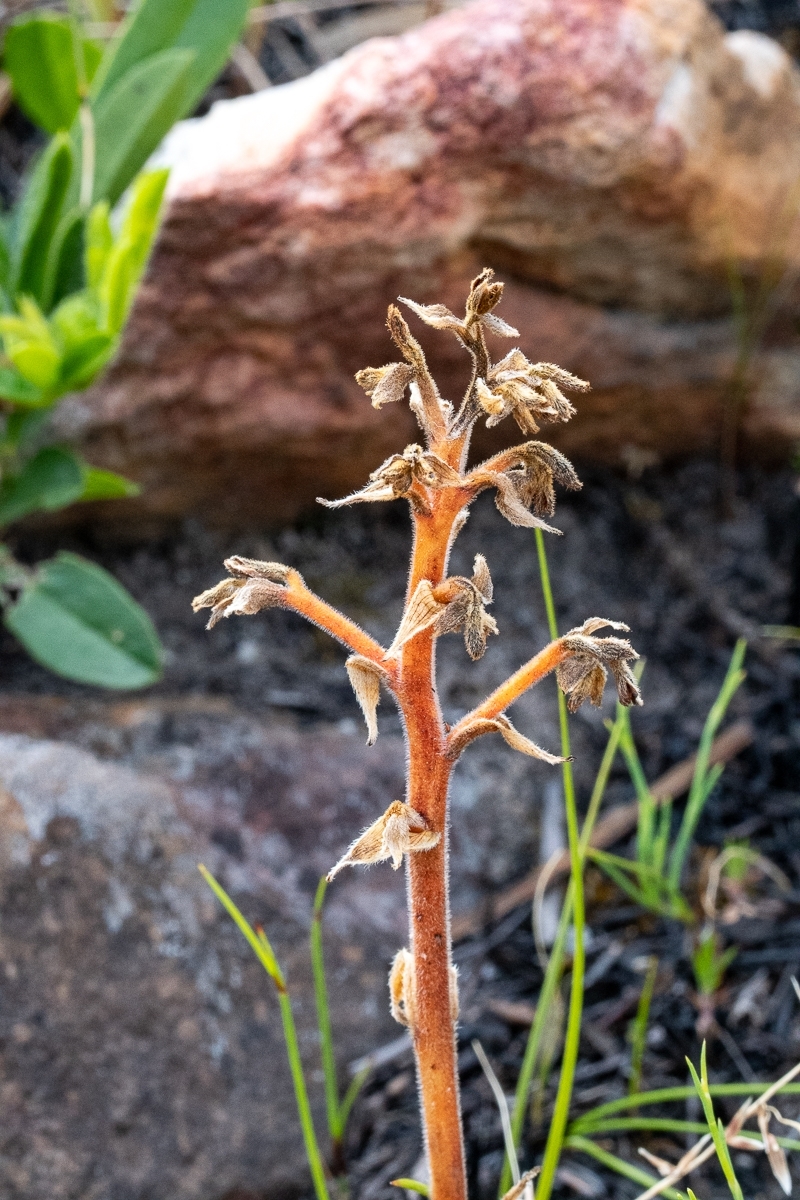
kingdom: Plantae
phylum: Tracheophyta
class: Liliopsida
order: Commelinales
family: Haemodoraceae
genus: Wachendorfia
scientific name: Wachendorfia paniculata
